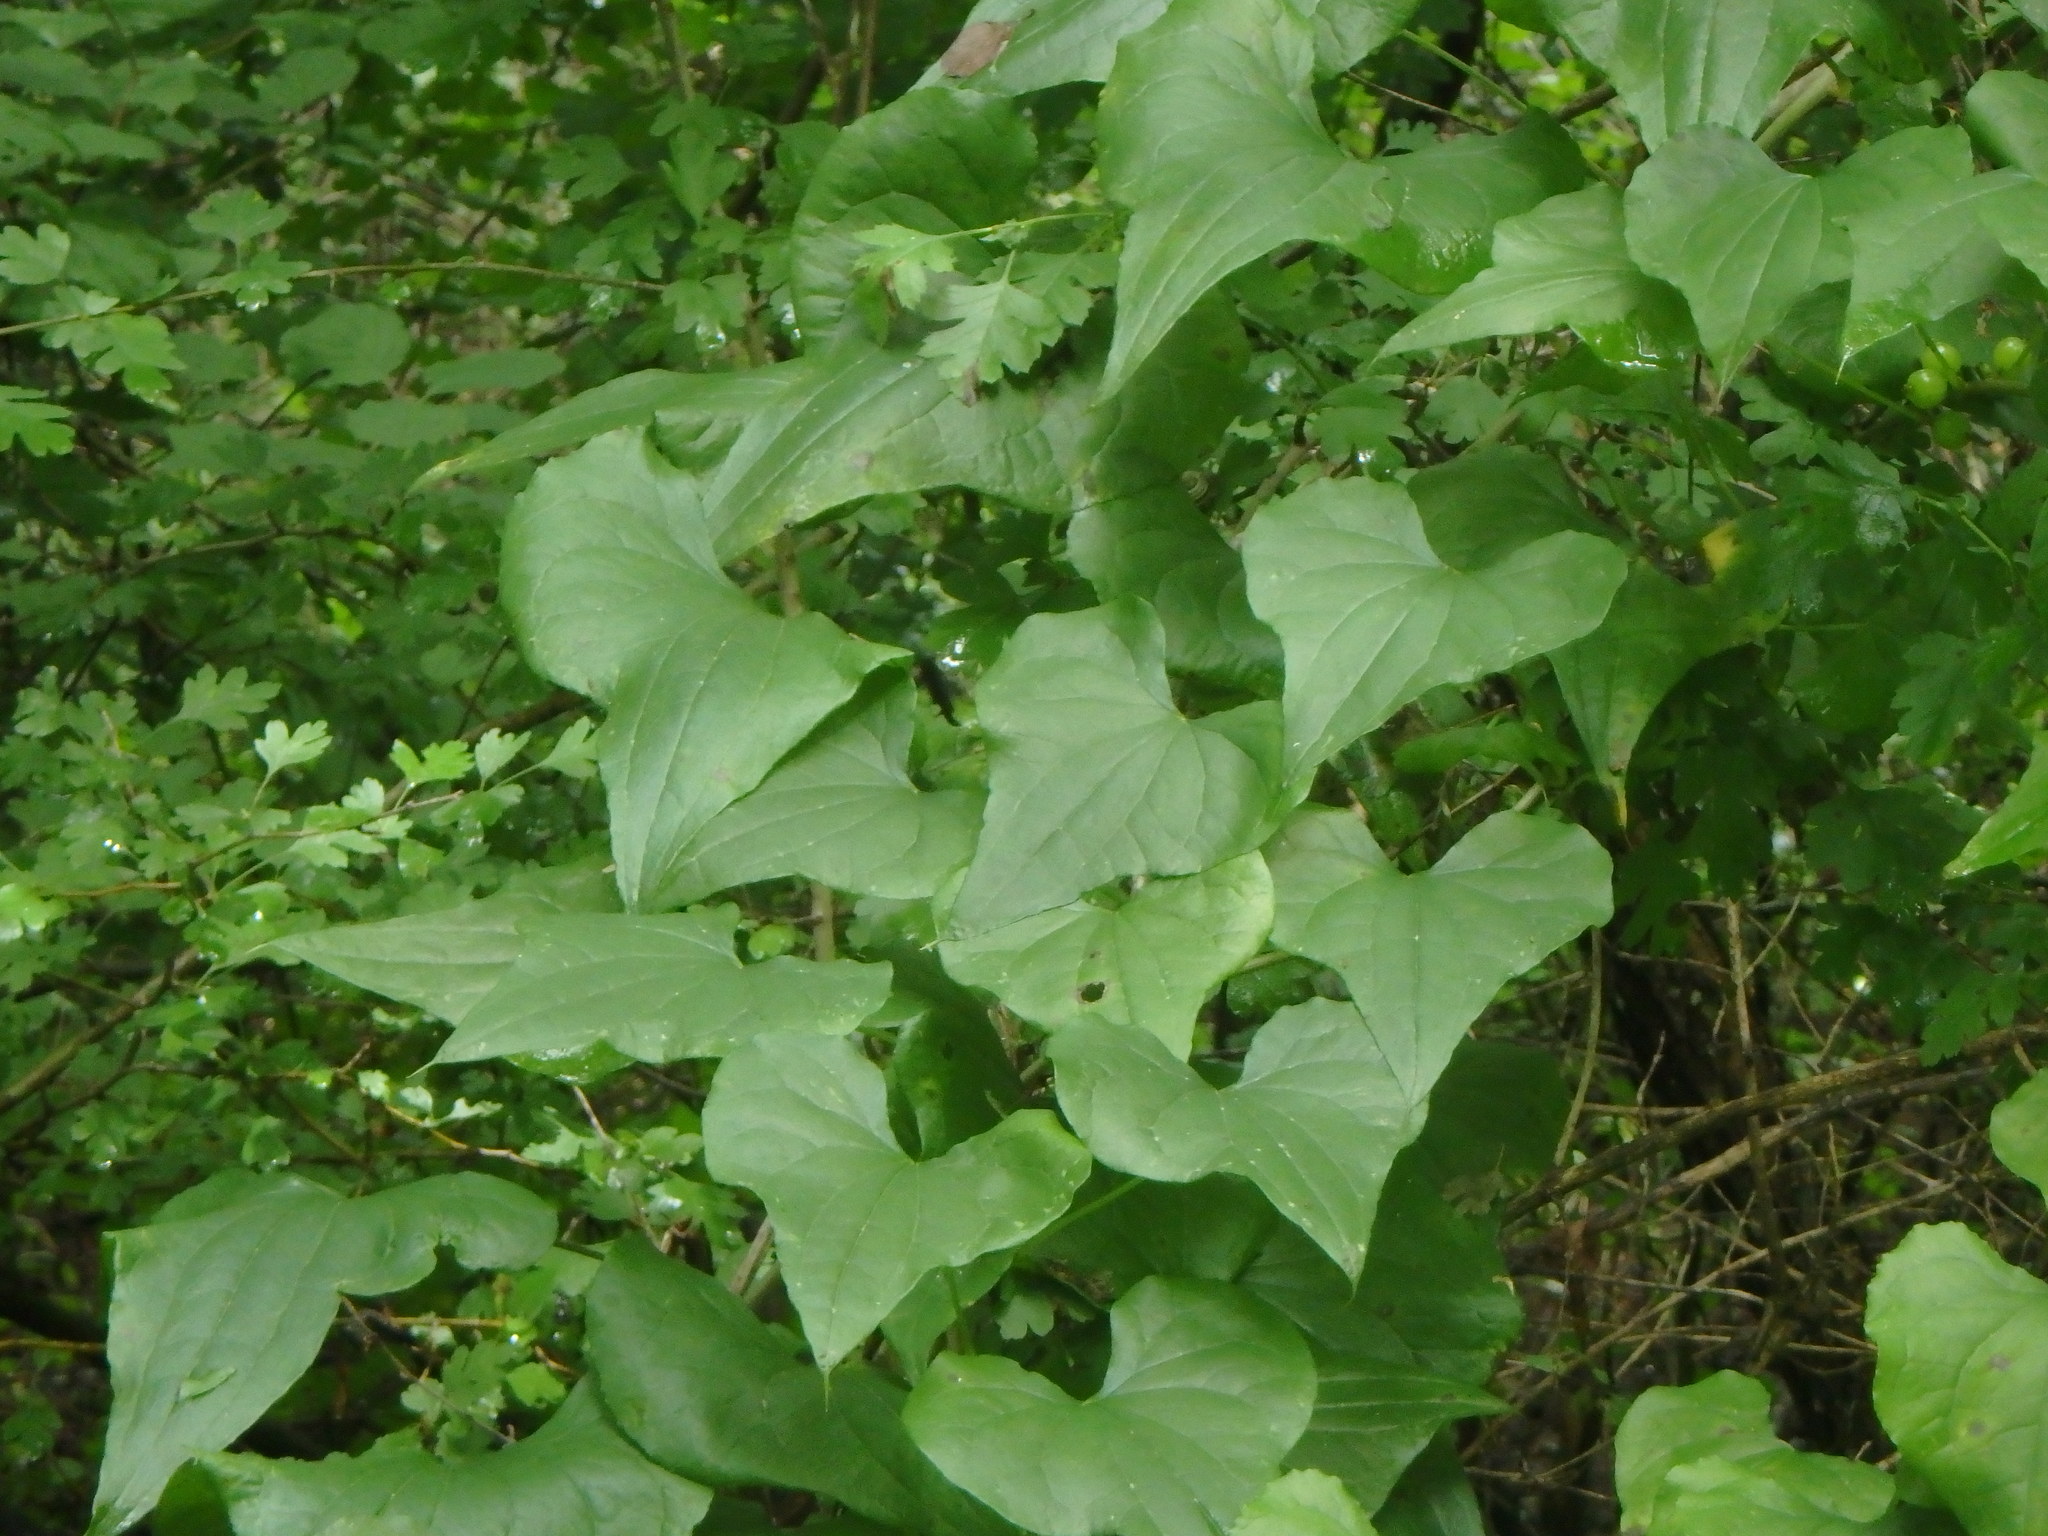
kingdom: Plantae
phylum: Tracheophyta
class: Liliopsida
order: Dioscoreales
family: Dioscoreaceae
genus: Dioscorea
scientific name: Dioscorea communis
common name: Black-bindweed
